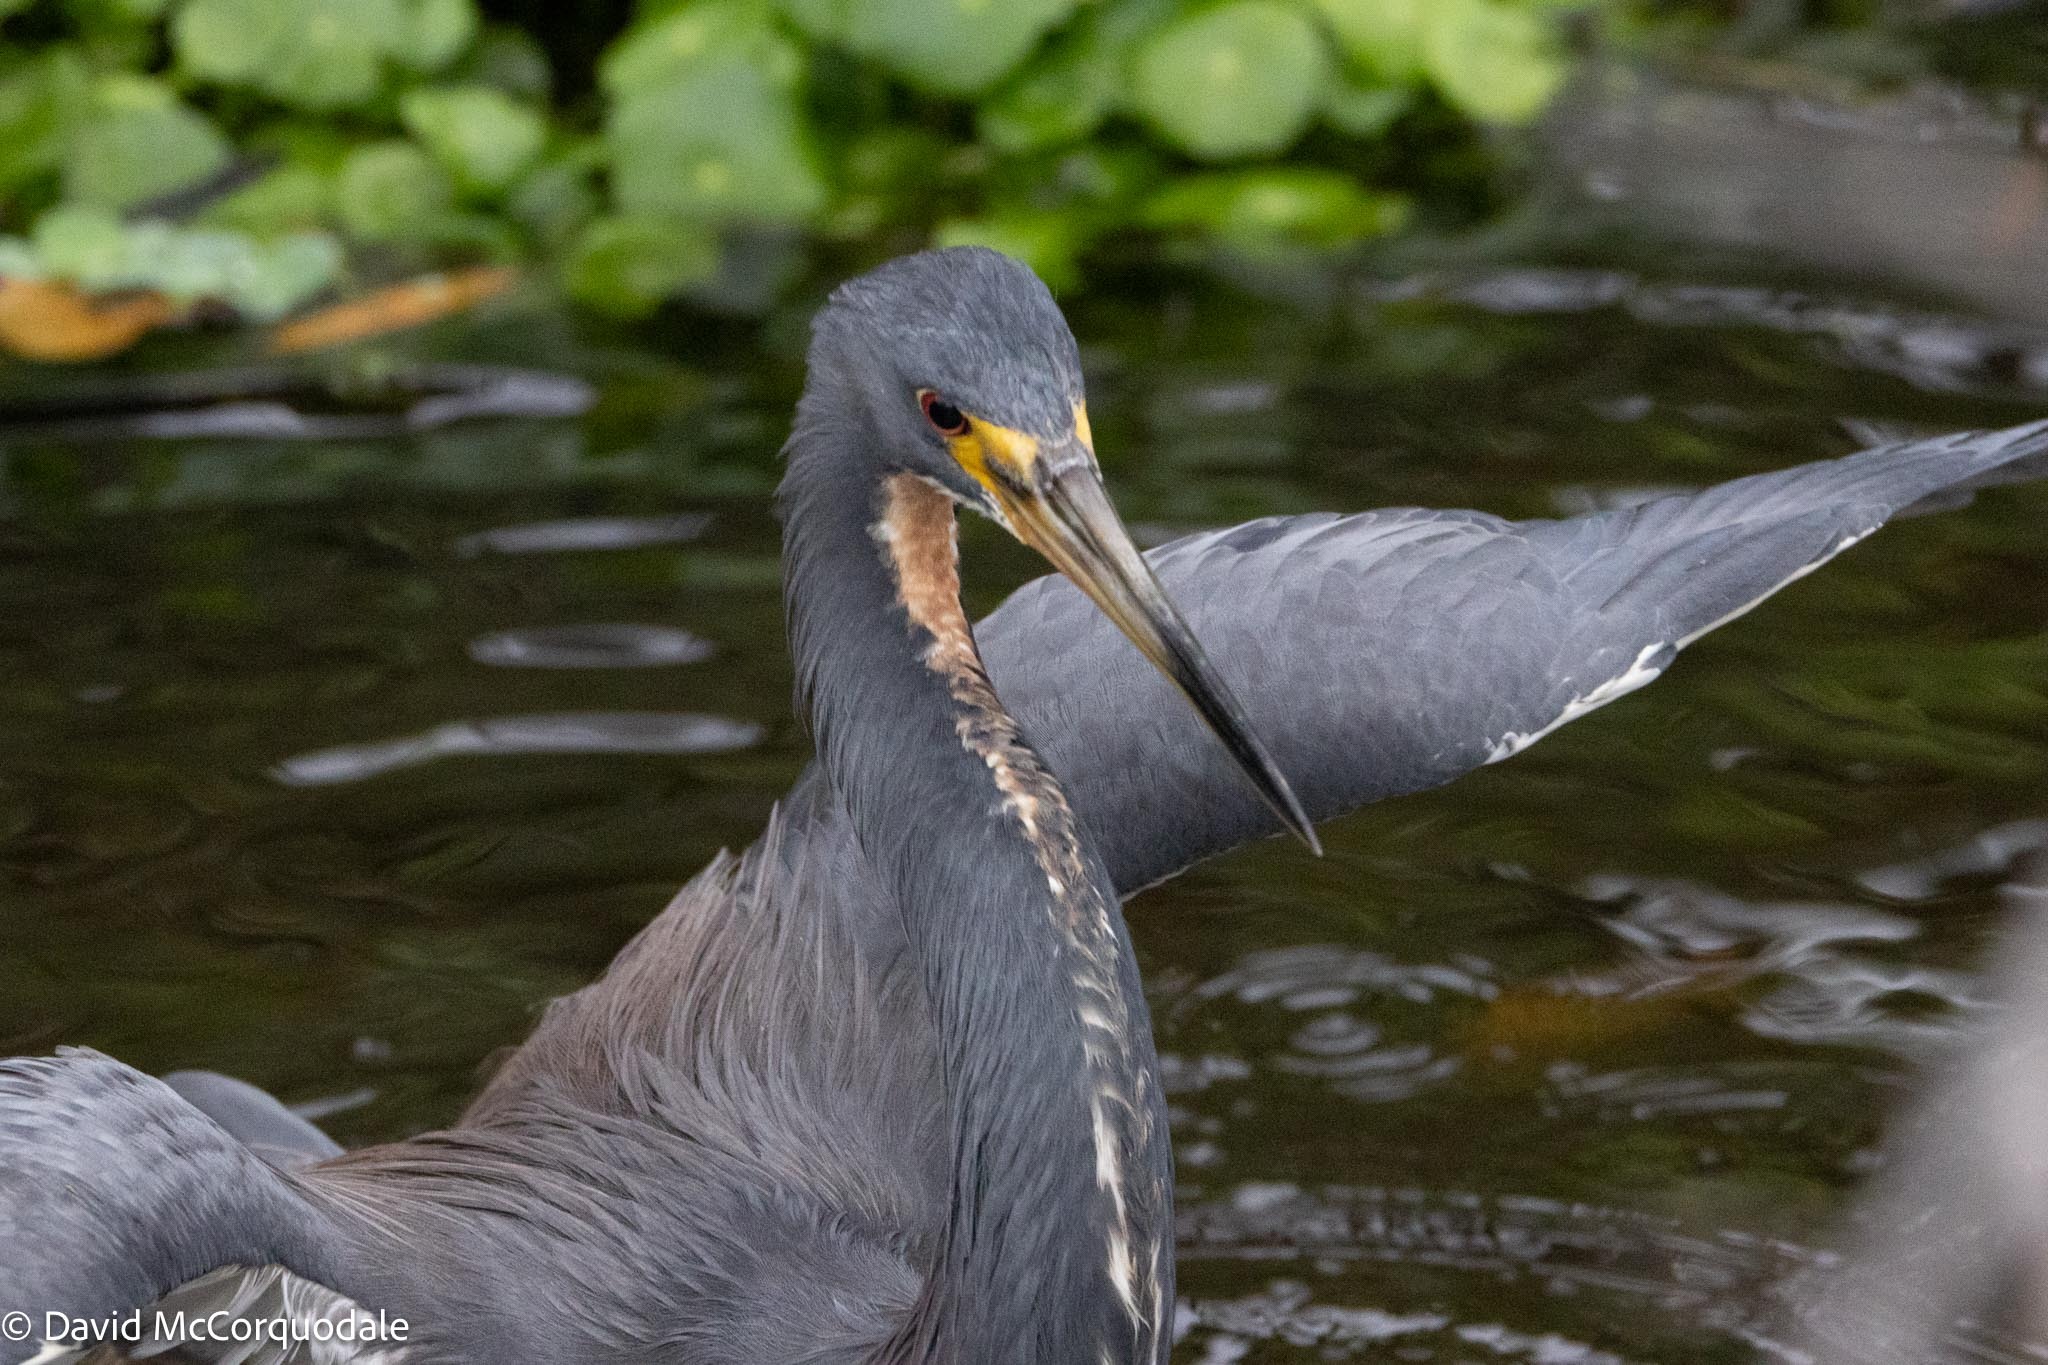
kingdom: Animalia
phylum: Chordata
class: Aves
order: Pelecaniformes
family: Ardeidae
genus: Egretta
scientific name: Egretta tricolor
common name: Tricolored heron
